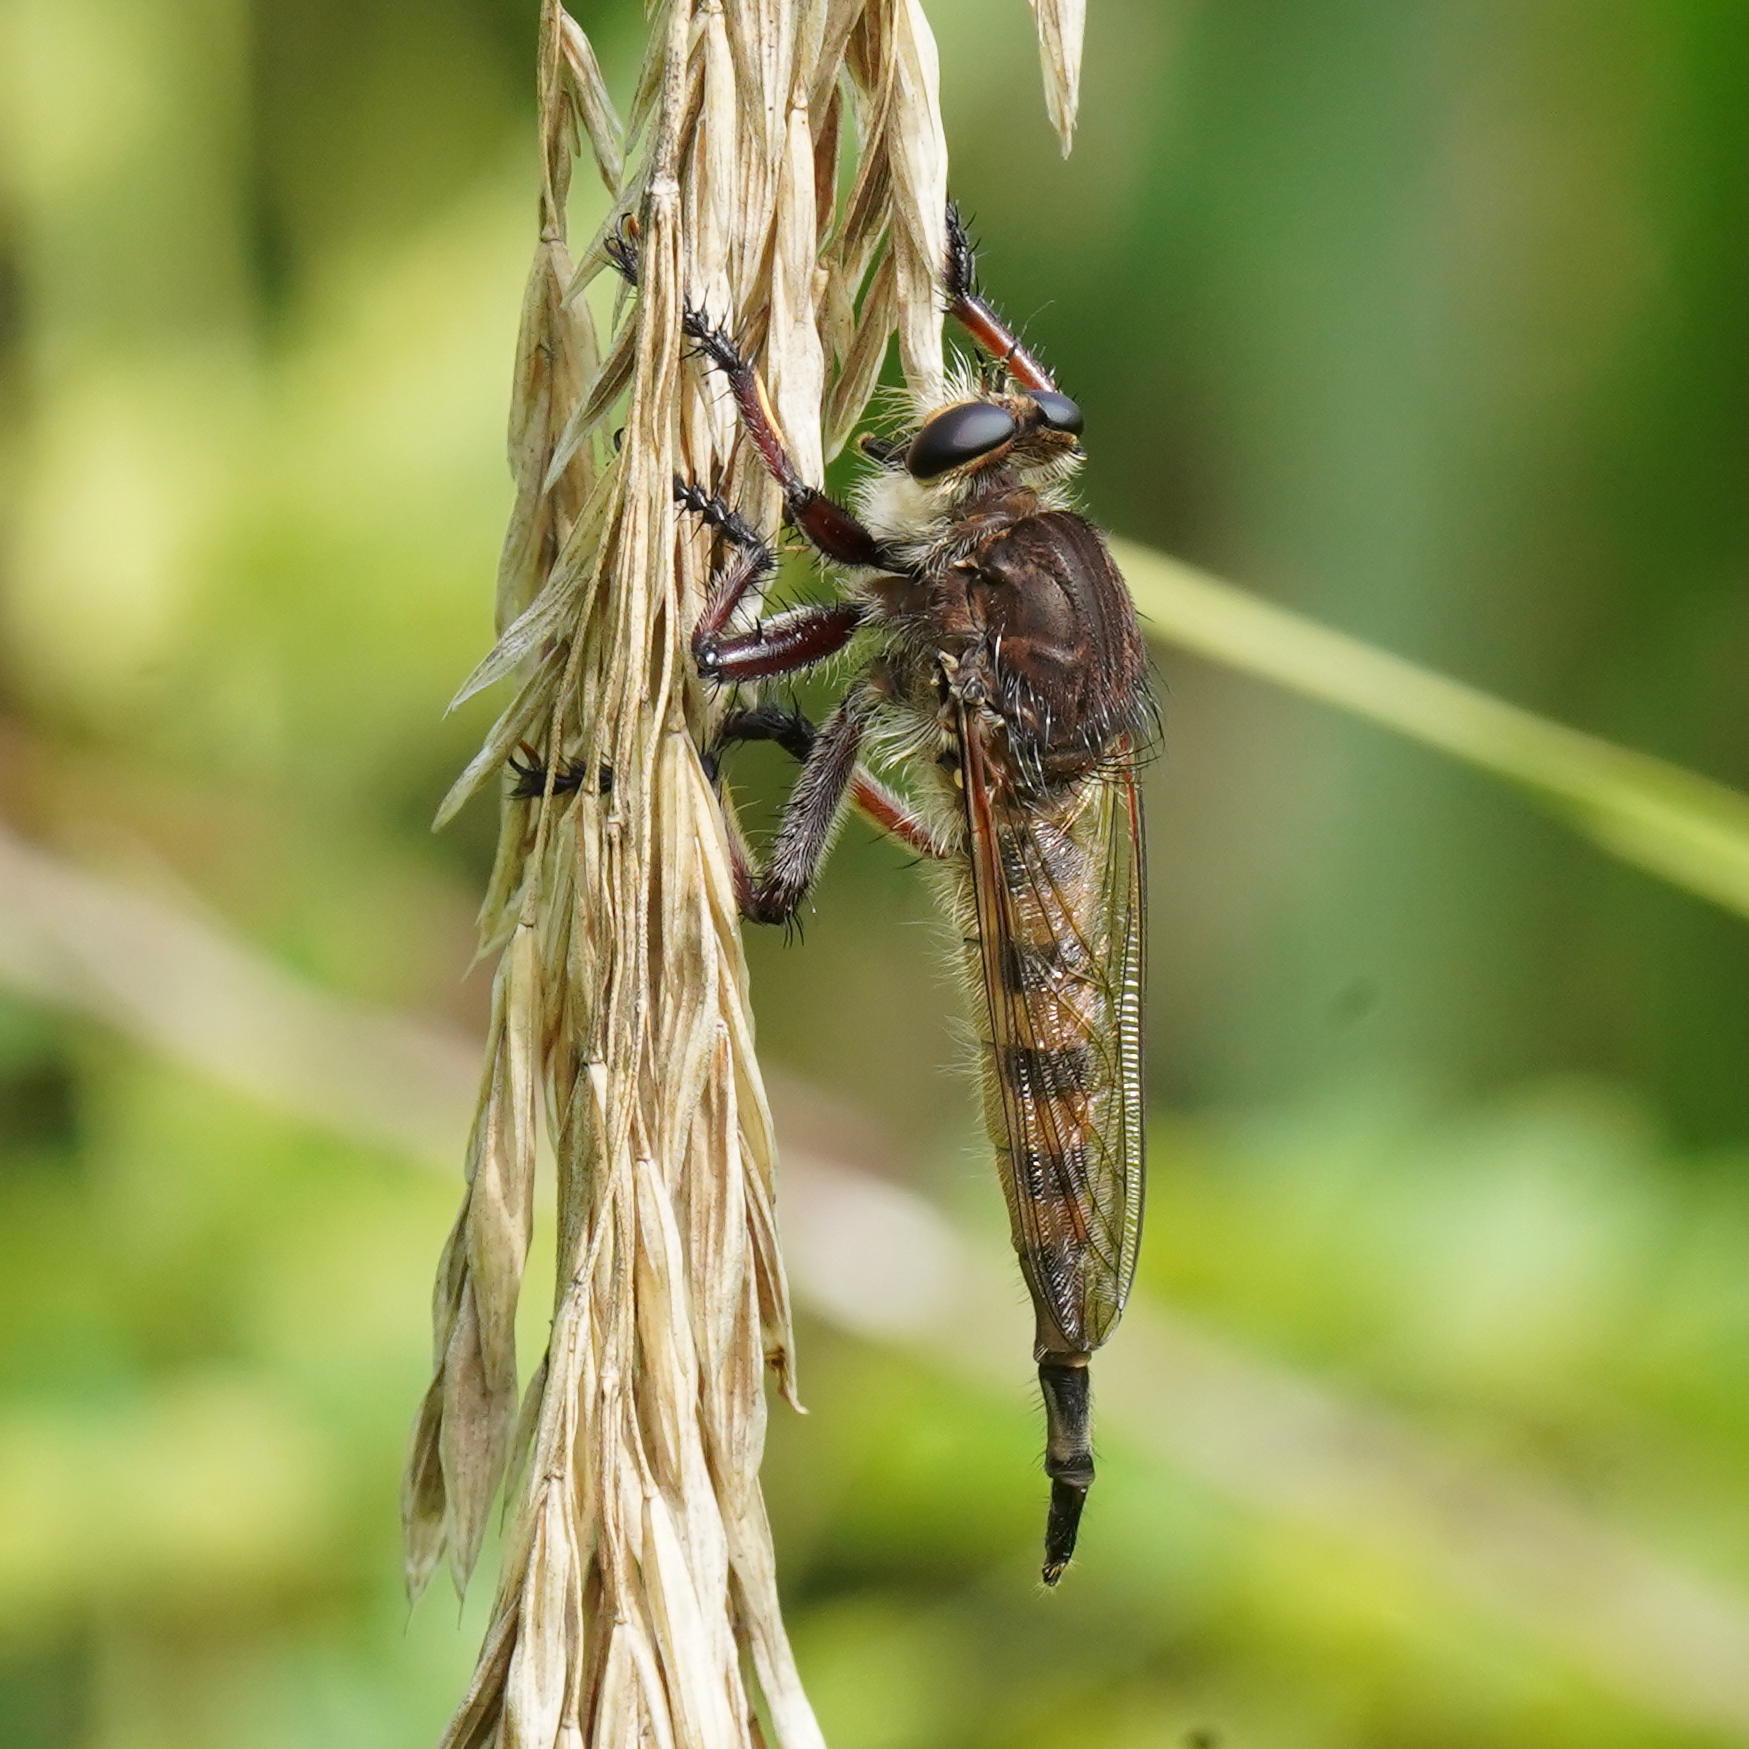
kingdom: Animalia
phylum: Arthropoda
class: Insecta
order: Diptera
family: Asilidae
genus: Promachus
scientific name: Promachus hinei
